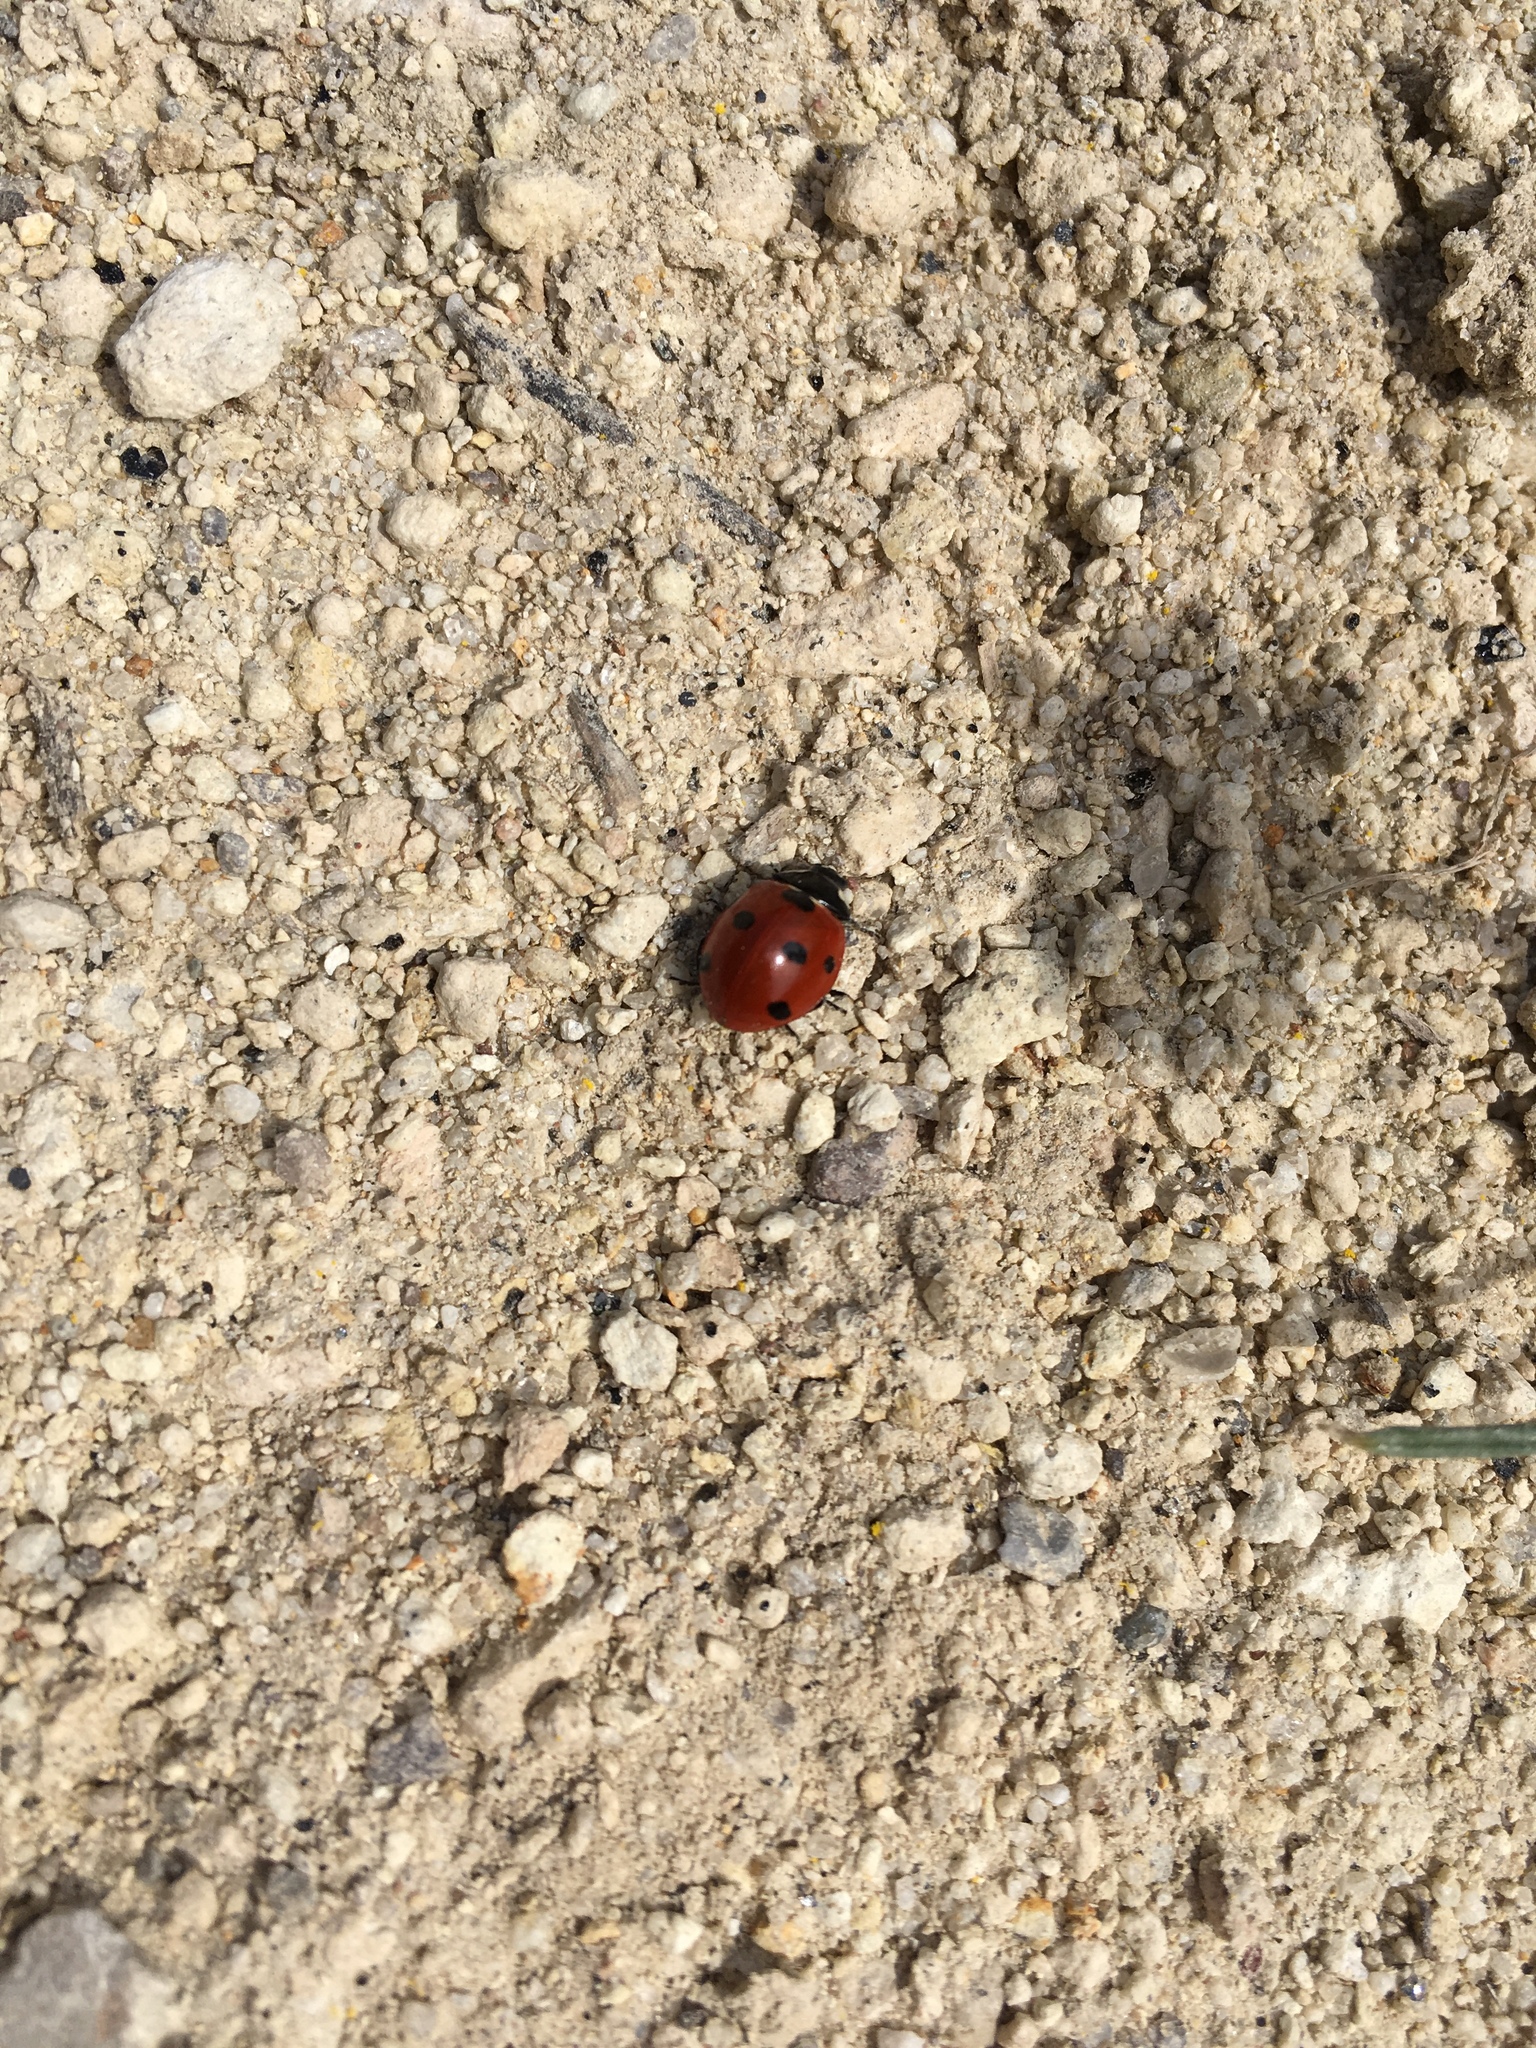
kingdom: Animalia
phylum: Arthropoda
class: Insecta
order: Coleoptera
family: Coccinellidae
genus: Coccinella
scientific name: Coccinella septempunctata
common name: Sevenspotted lady beetle
